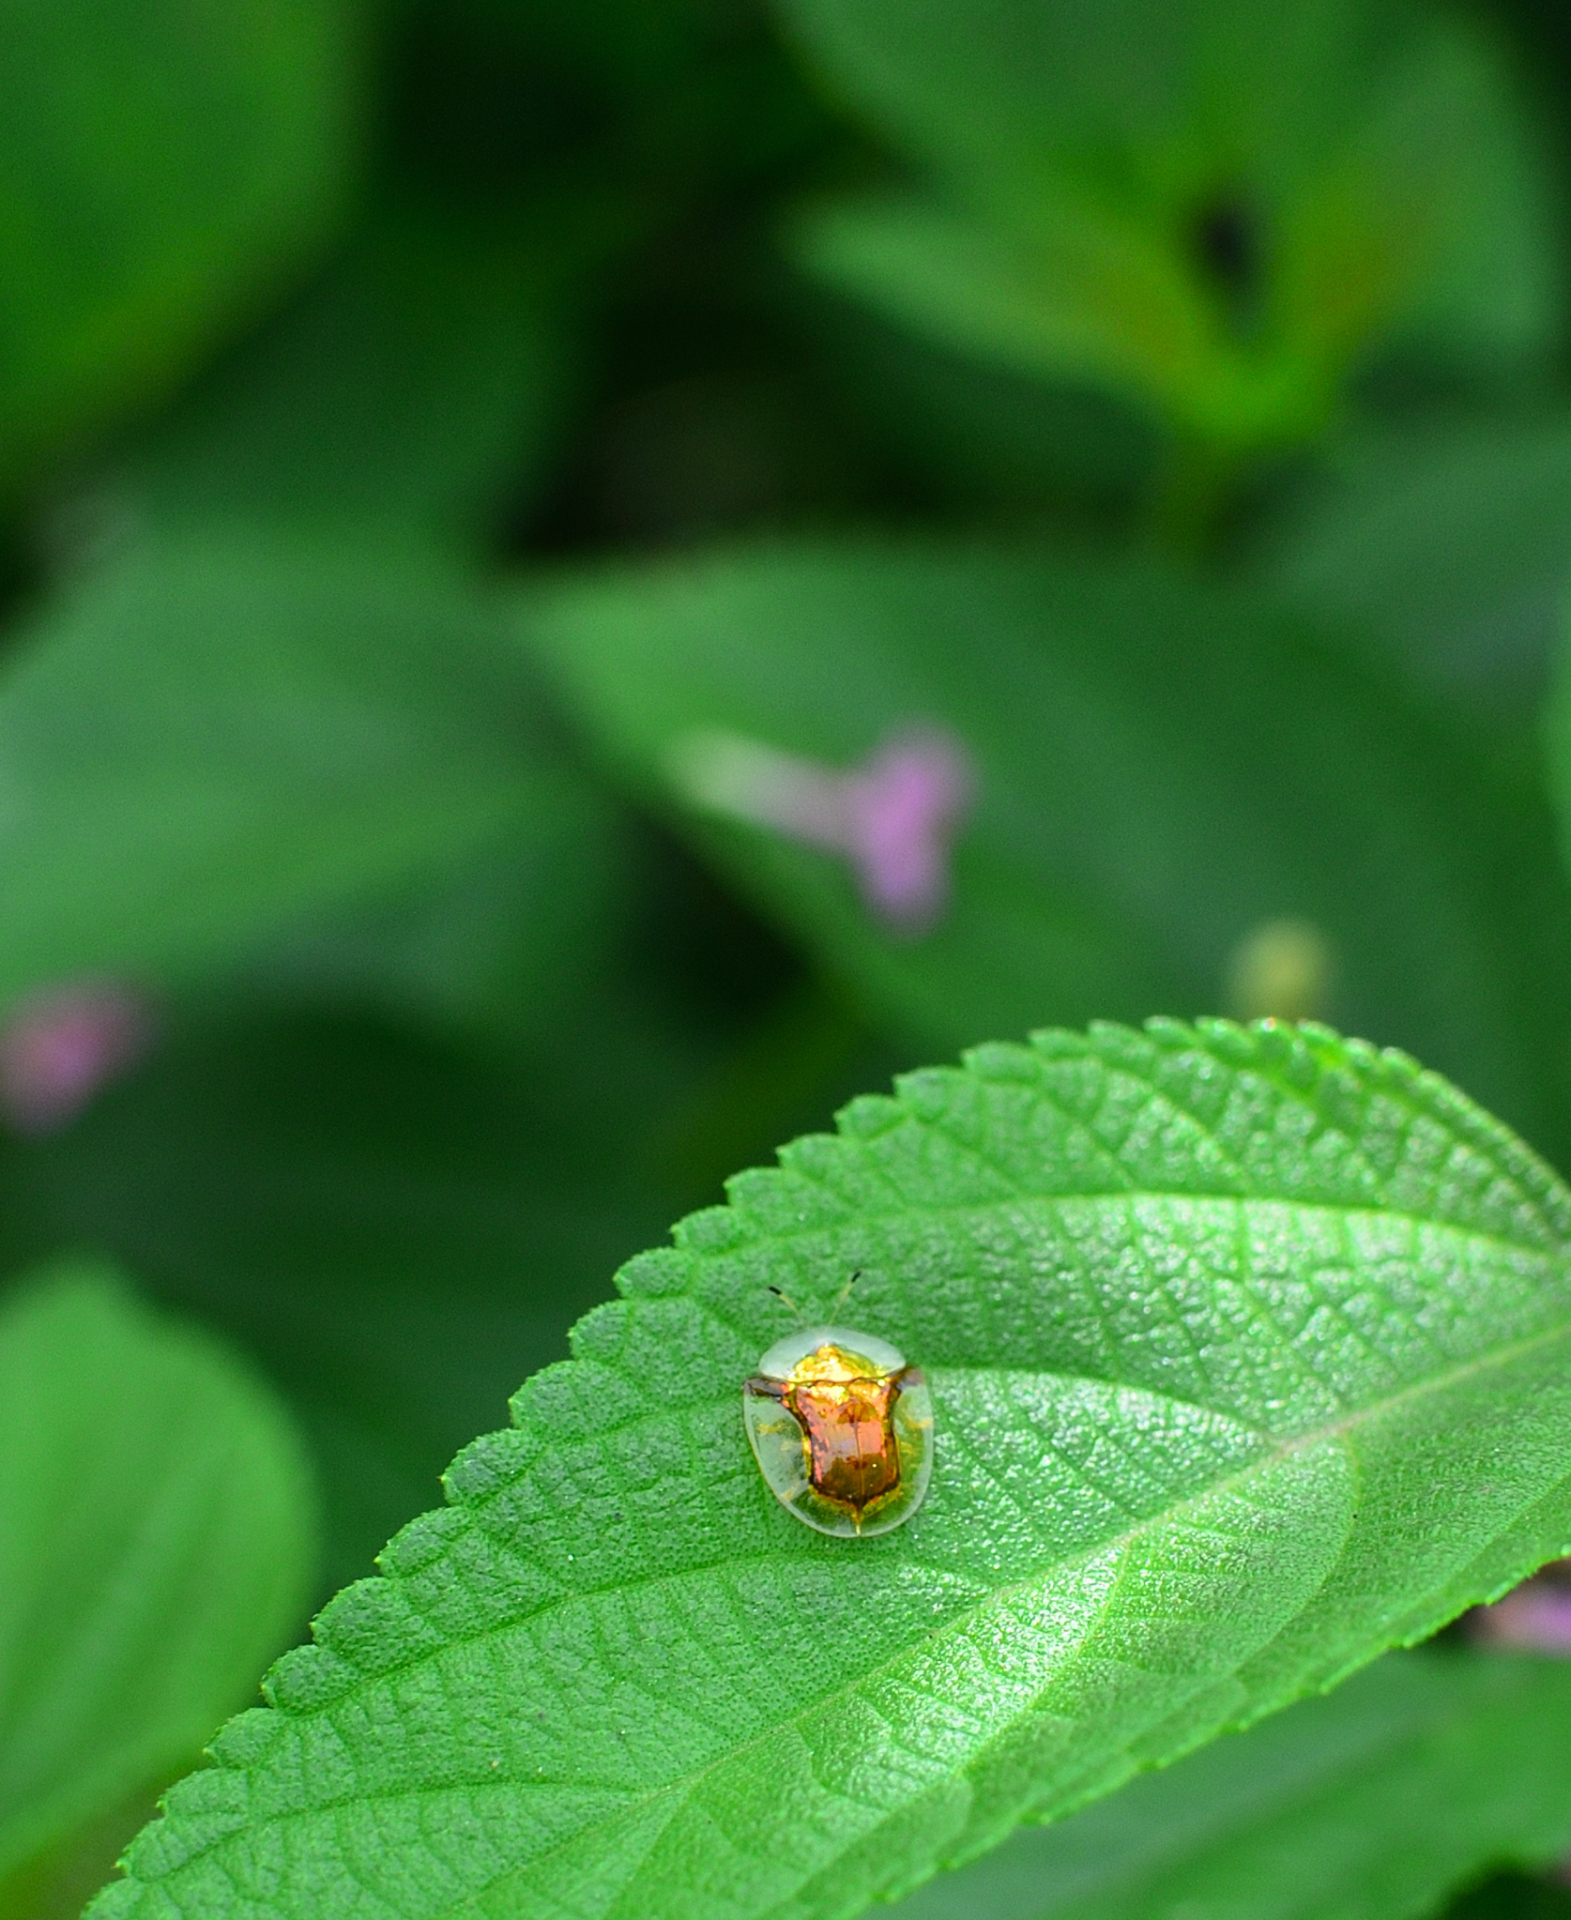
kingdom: Animalia
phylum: Arthropoda
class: Insecta
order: Coleoptera
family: Chrysomelidae
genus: Aspidimorpha
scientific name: Aspidimorpha furcata
